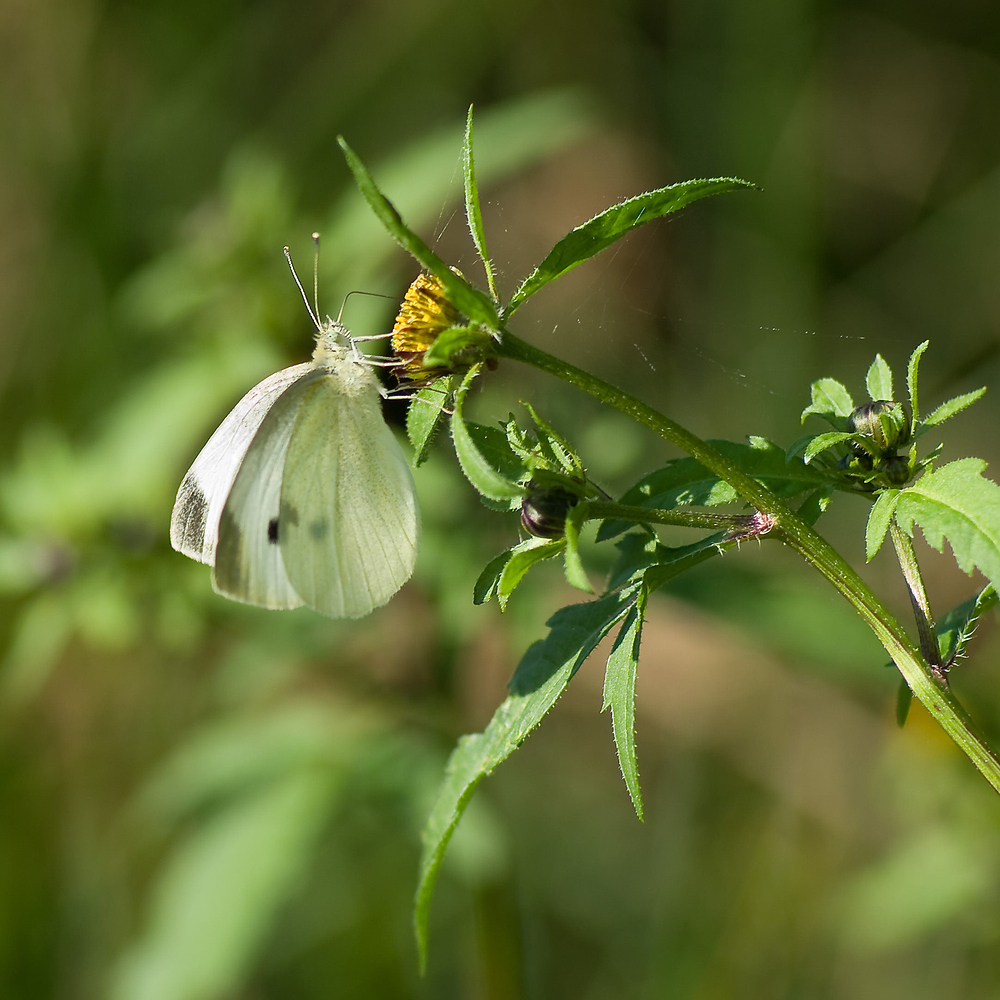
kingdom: Animalia
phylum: Arthropoda
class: Insecta
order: Lepidoptera
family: Pieridae
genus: Pieris
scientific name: Pieris rapae
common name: Small white
